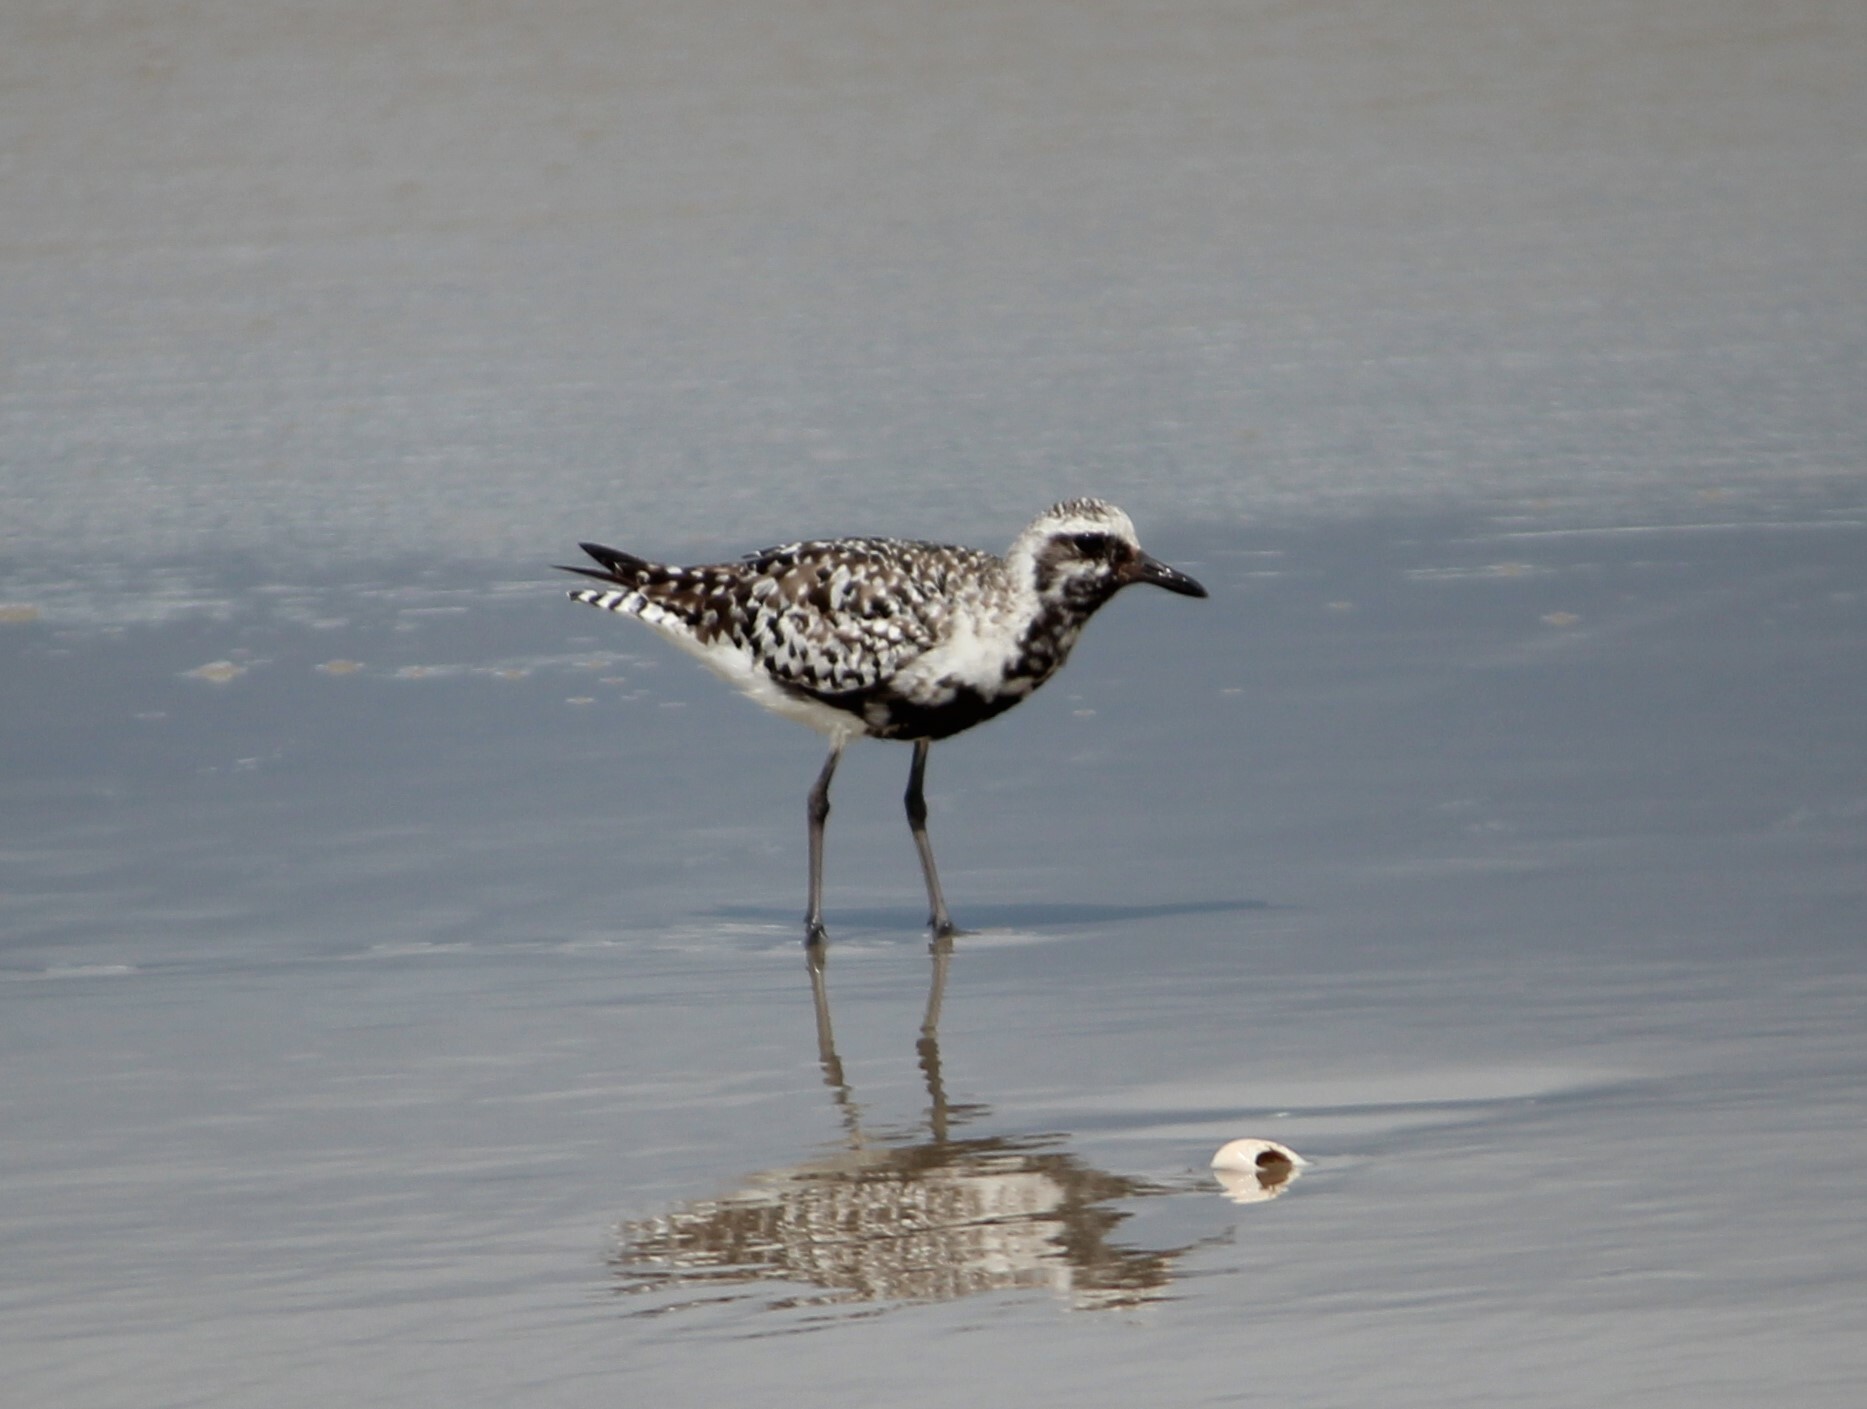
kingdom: Animalia
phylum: Chordata
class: Aves
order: Charadriiformes
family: Charadriidae
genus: Pluvialis
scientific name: Pluvialis squatarola
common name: Grey plover
